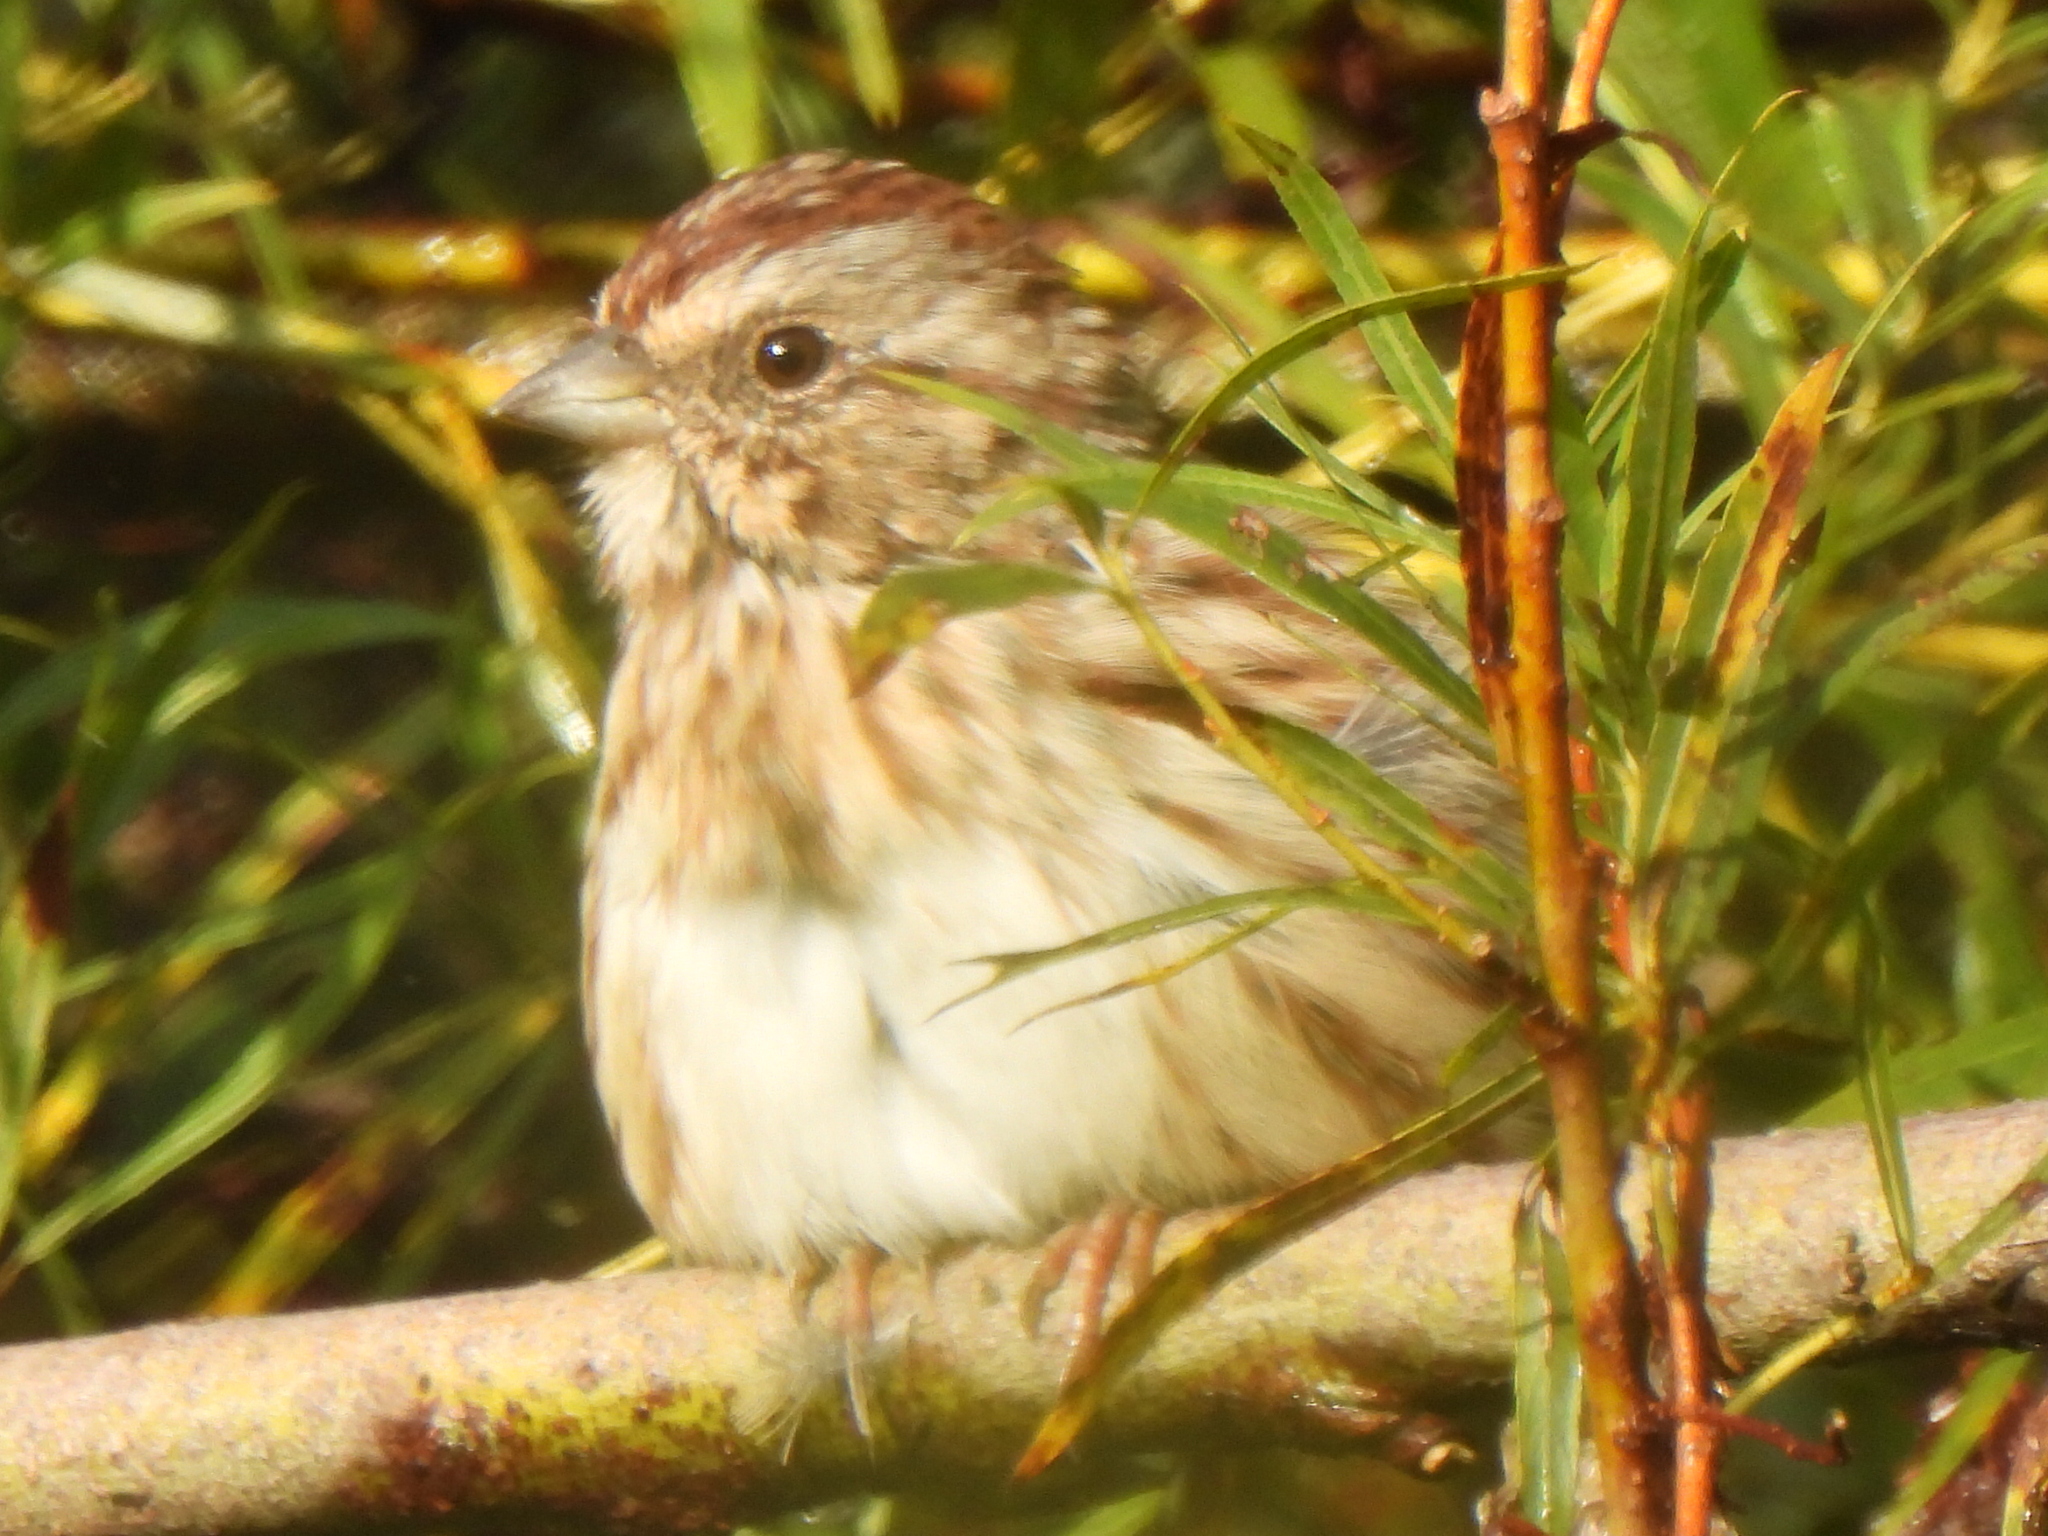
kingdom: Animalia
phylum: Chordata
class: Aves
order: Passeriformes
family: Passerellidae
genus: Melospiza
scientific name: Melospiza melodia
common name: Song sparrow
